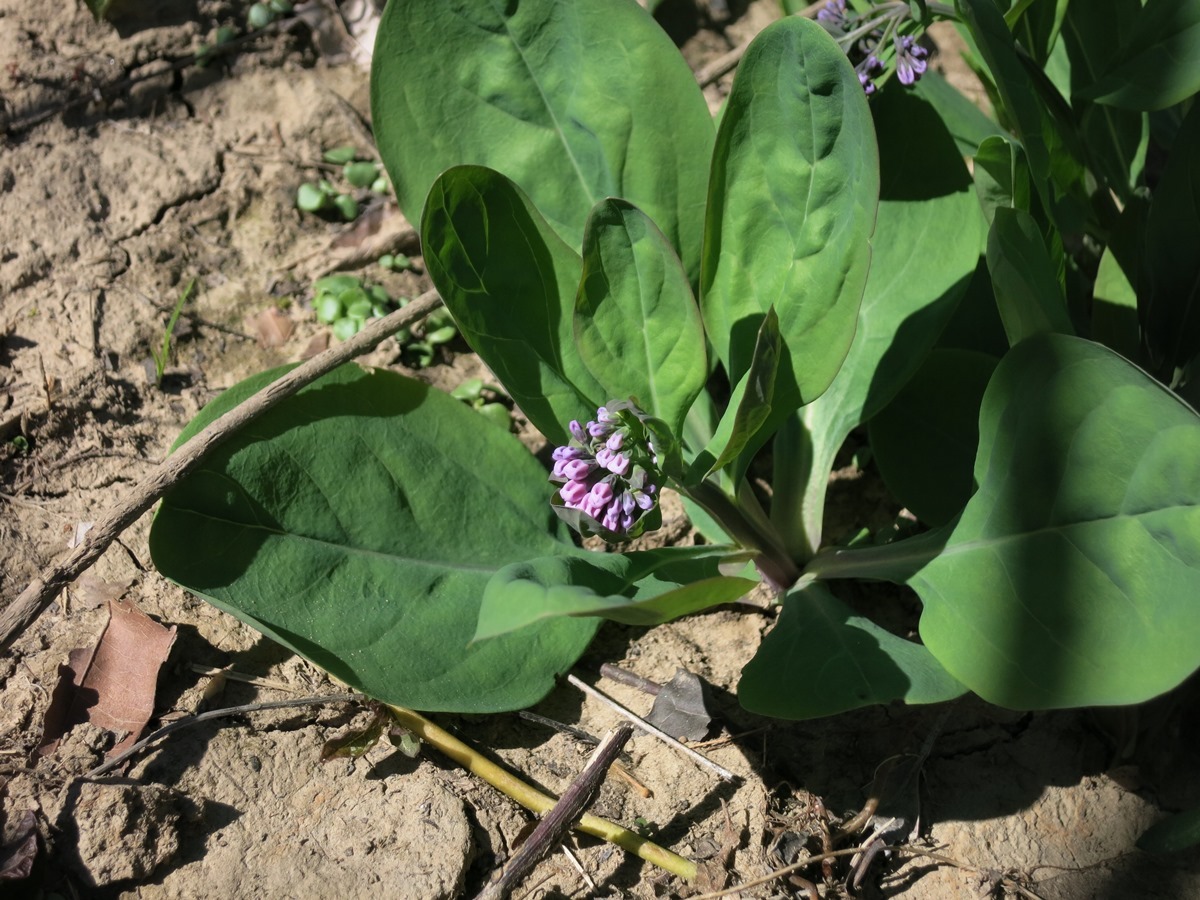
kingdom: Plantae
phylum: Tracheophyta
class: Magnoliopsida
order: Boraginales
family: Boraginaceae
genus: Mertensia
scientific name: Mertensia virginica
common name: Virginia bluebells
